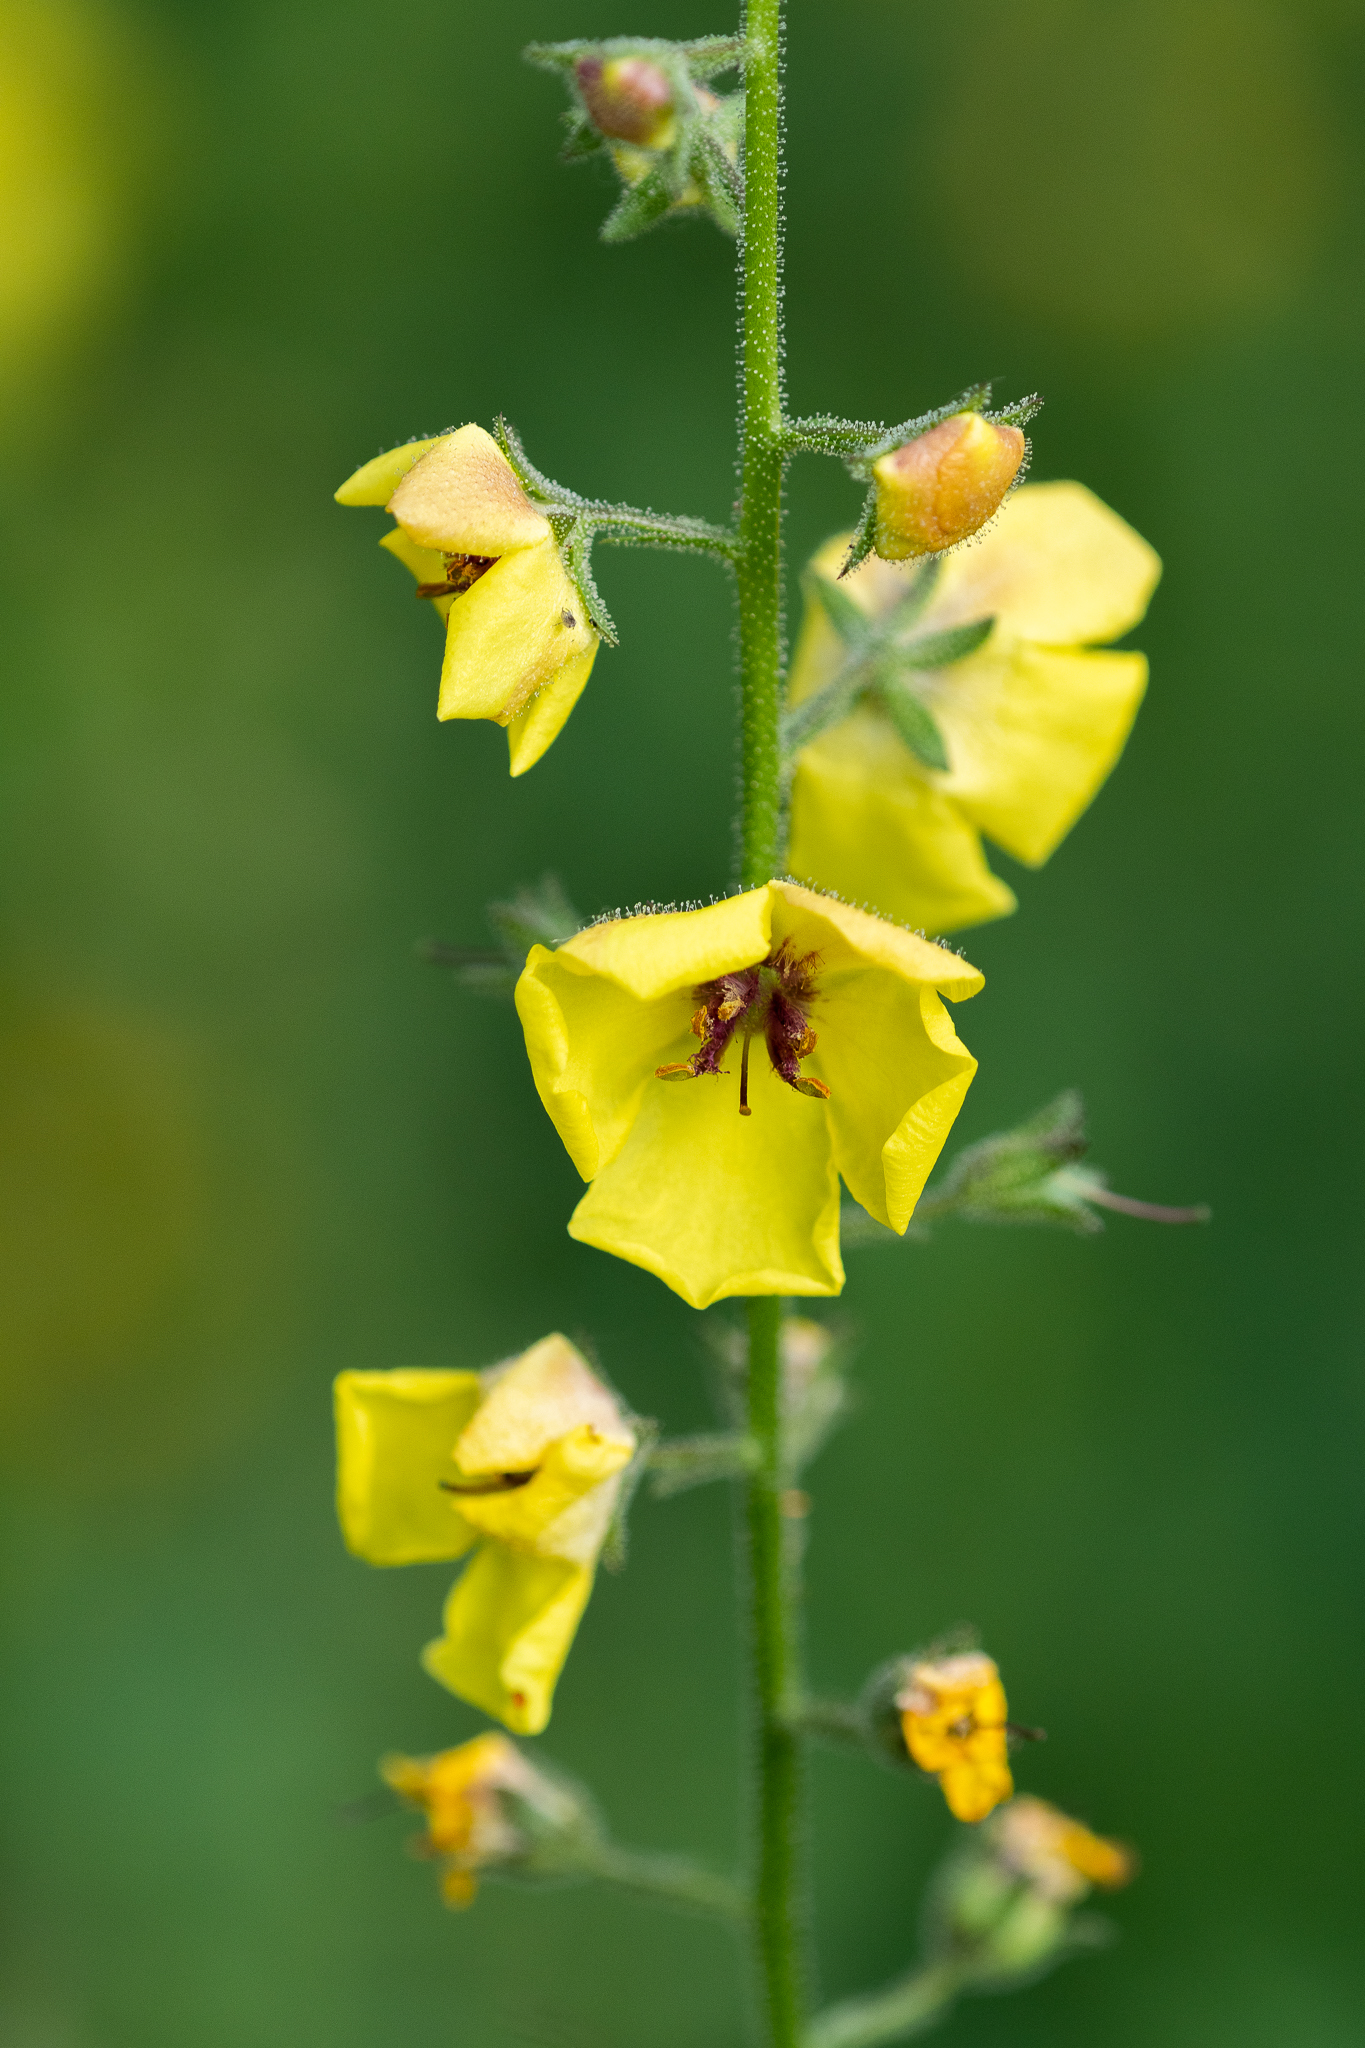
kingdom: Plantae
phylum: Tracheophyta
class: Magnoliopsida
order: Lamiales
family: Scrophulariaceae
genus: Verbascum
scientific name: Verbascum blattaria
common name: Moth mullein
